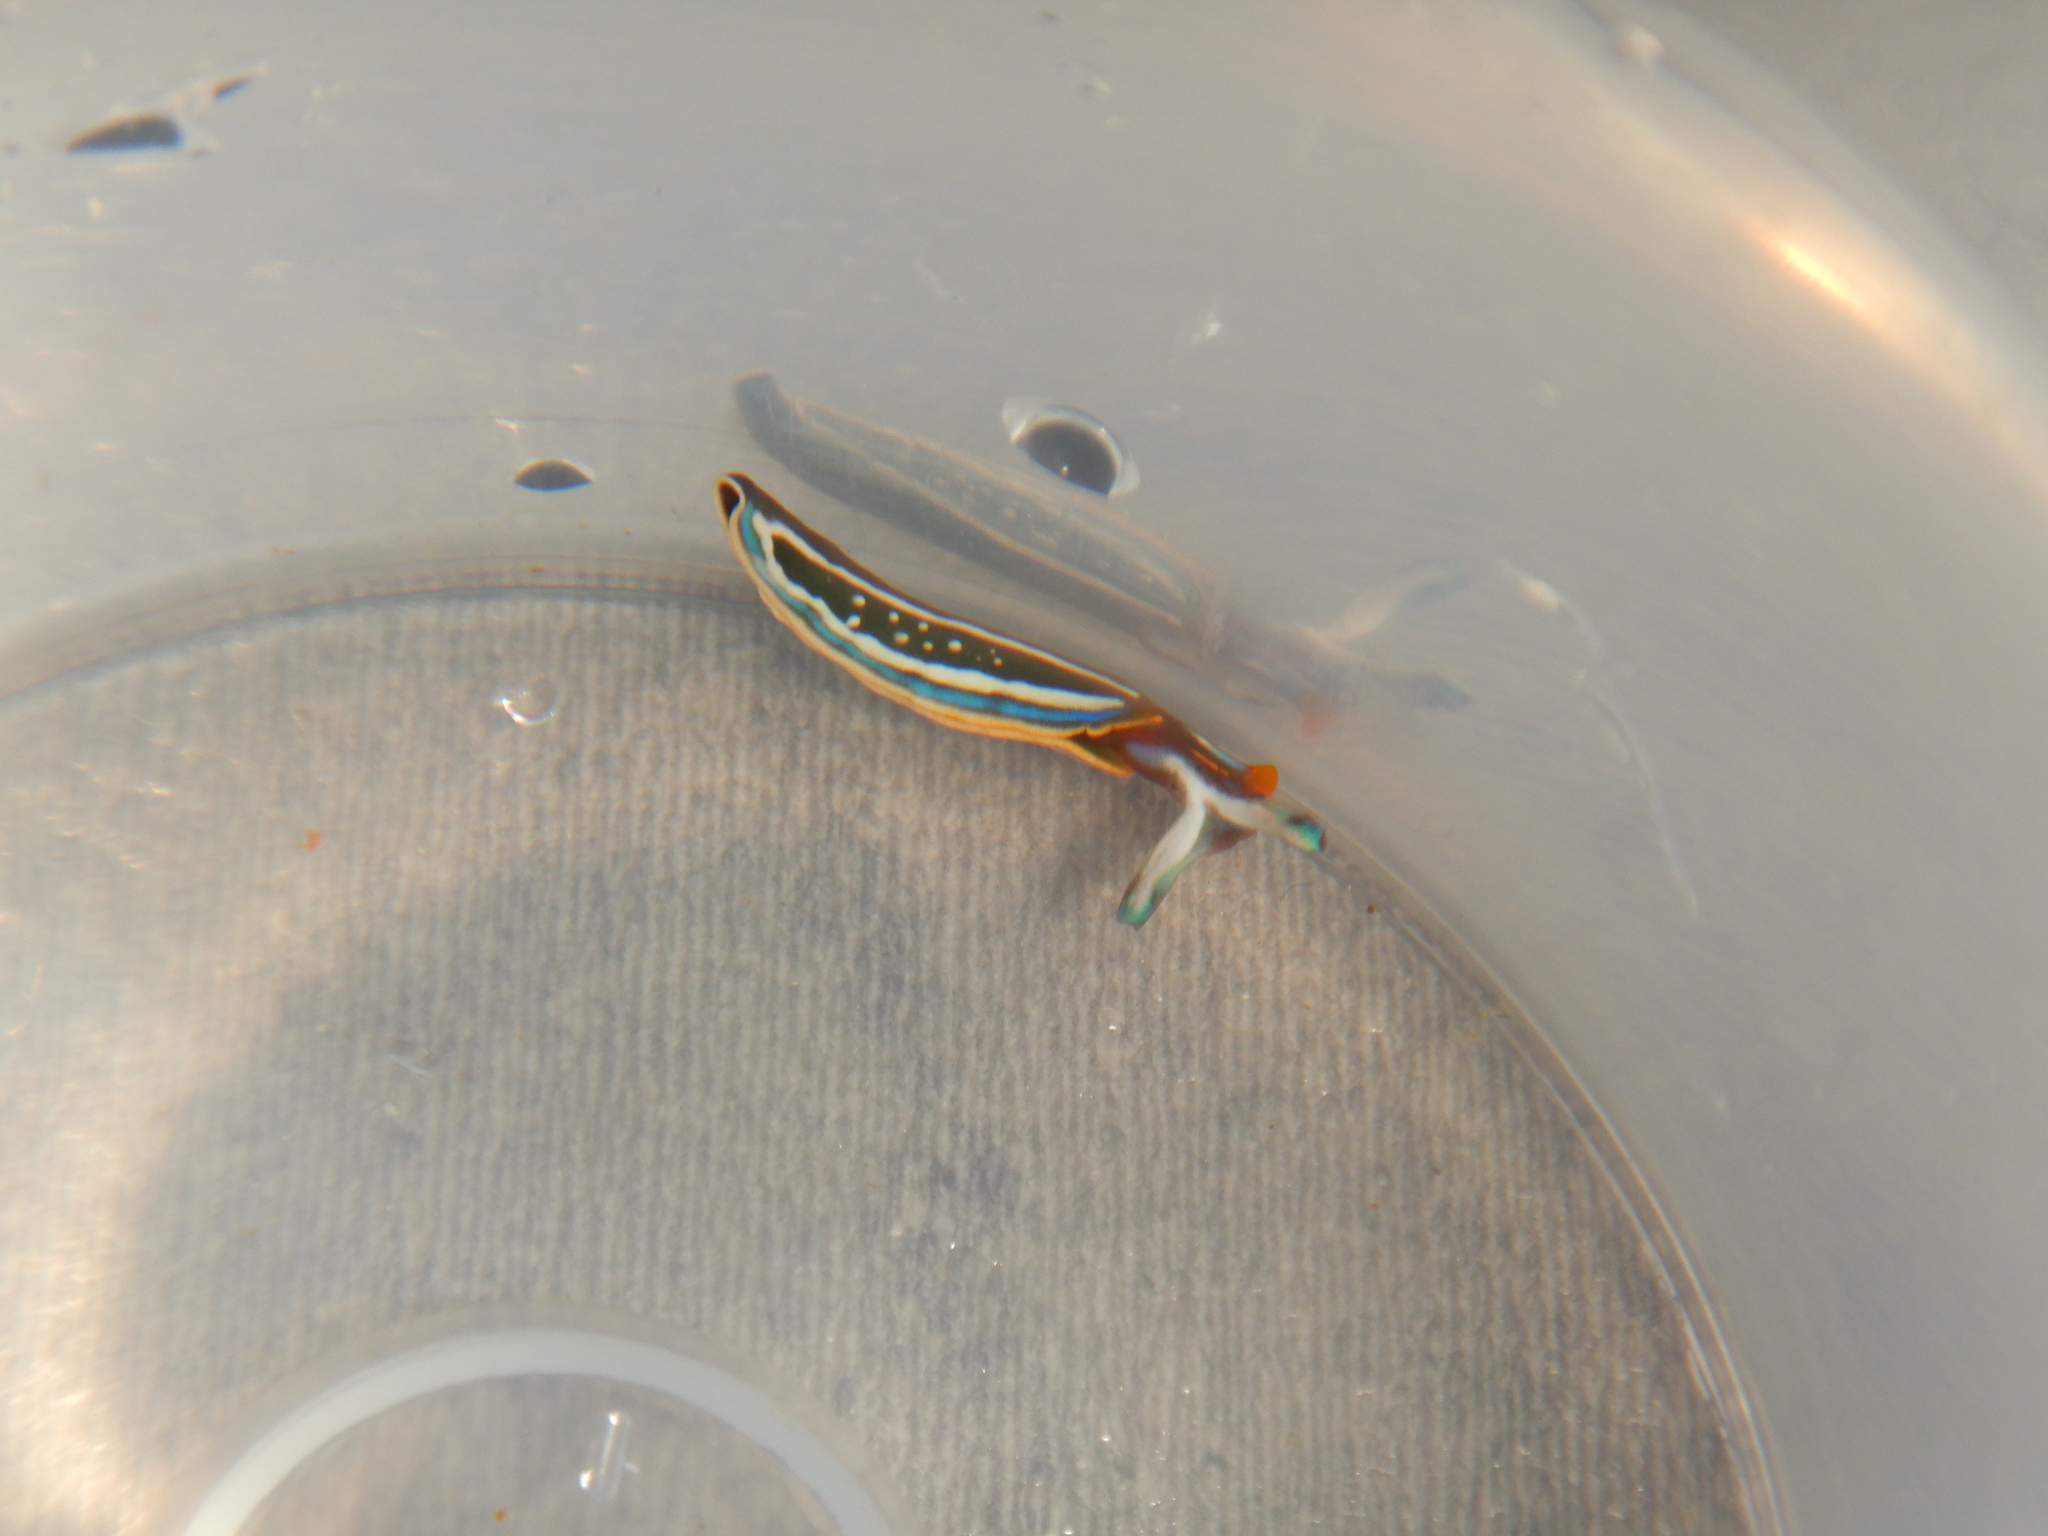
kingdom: Animalia
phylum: Mollusca
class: Gastropoda
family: Plakobranchidae
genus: Thuridilla
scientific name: Thuridilla hopei
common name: Splendid elysia
